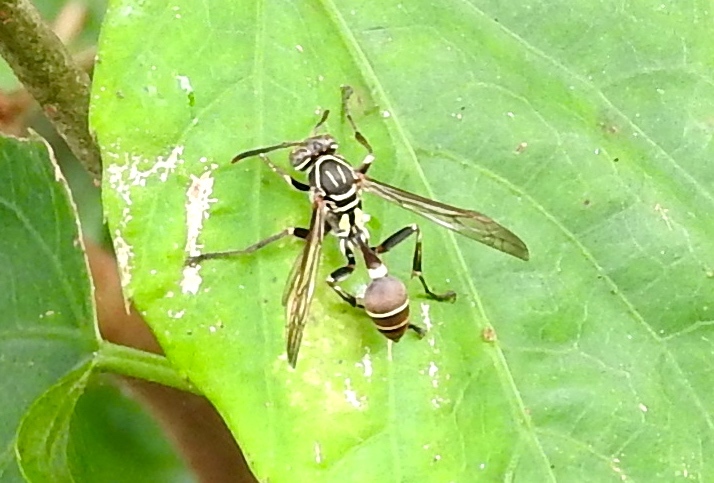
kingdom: Animalia
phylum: Arthropoda
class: Insecta
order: Hymenoptera
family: Vespidae
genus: Mischocyttarus
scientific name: Mischocyttarus mexicanus
